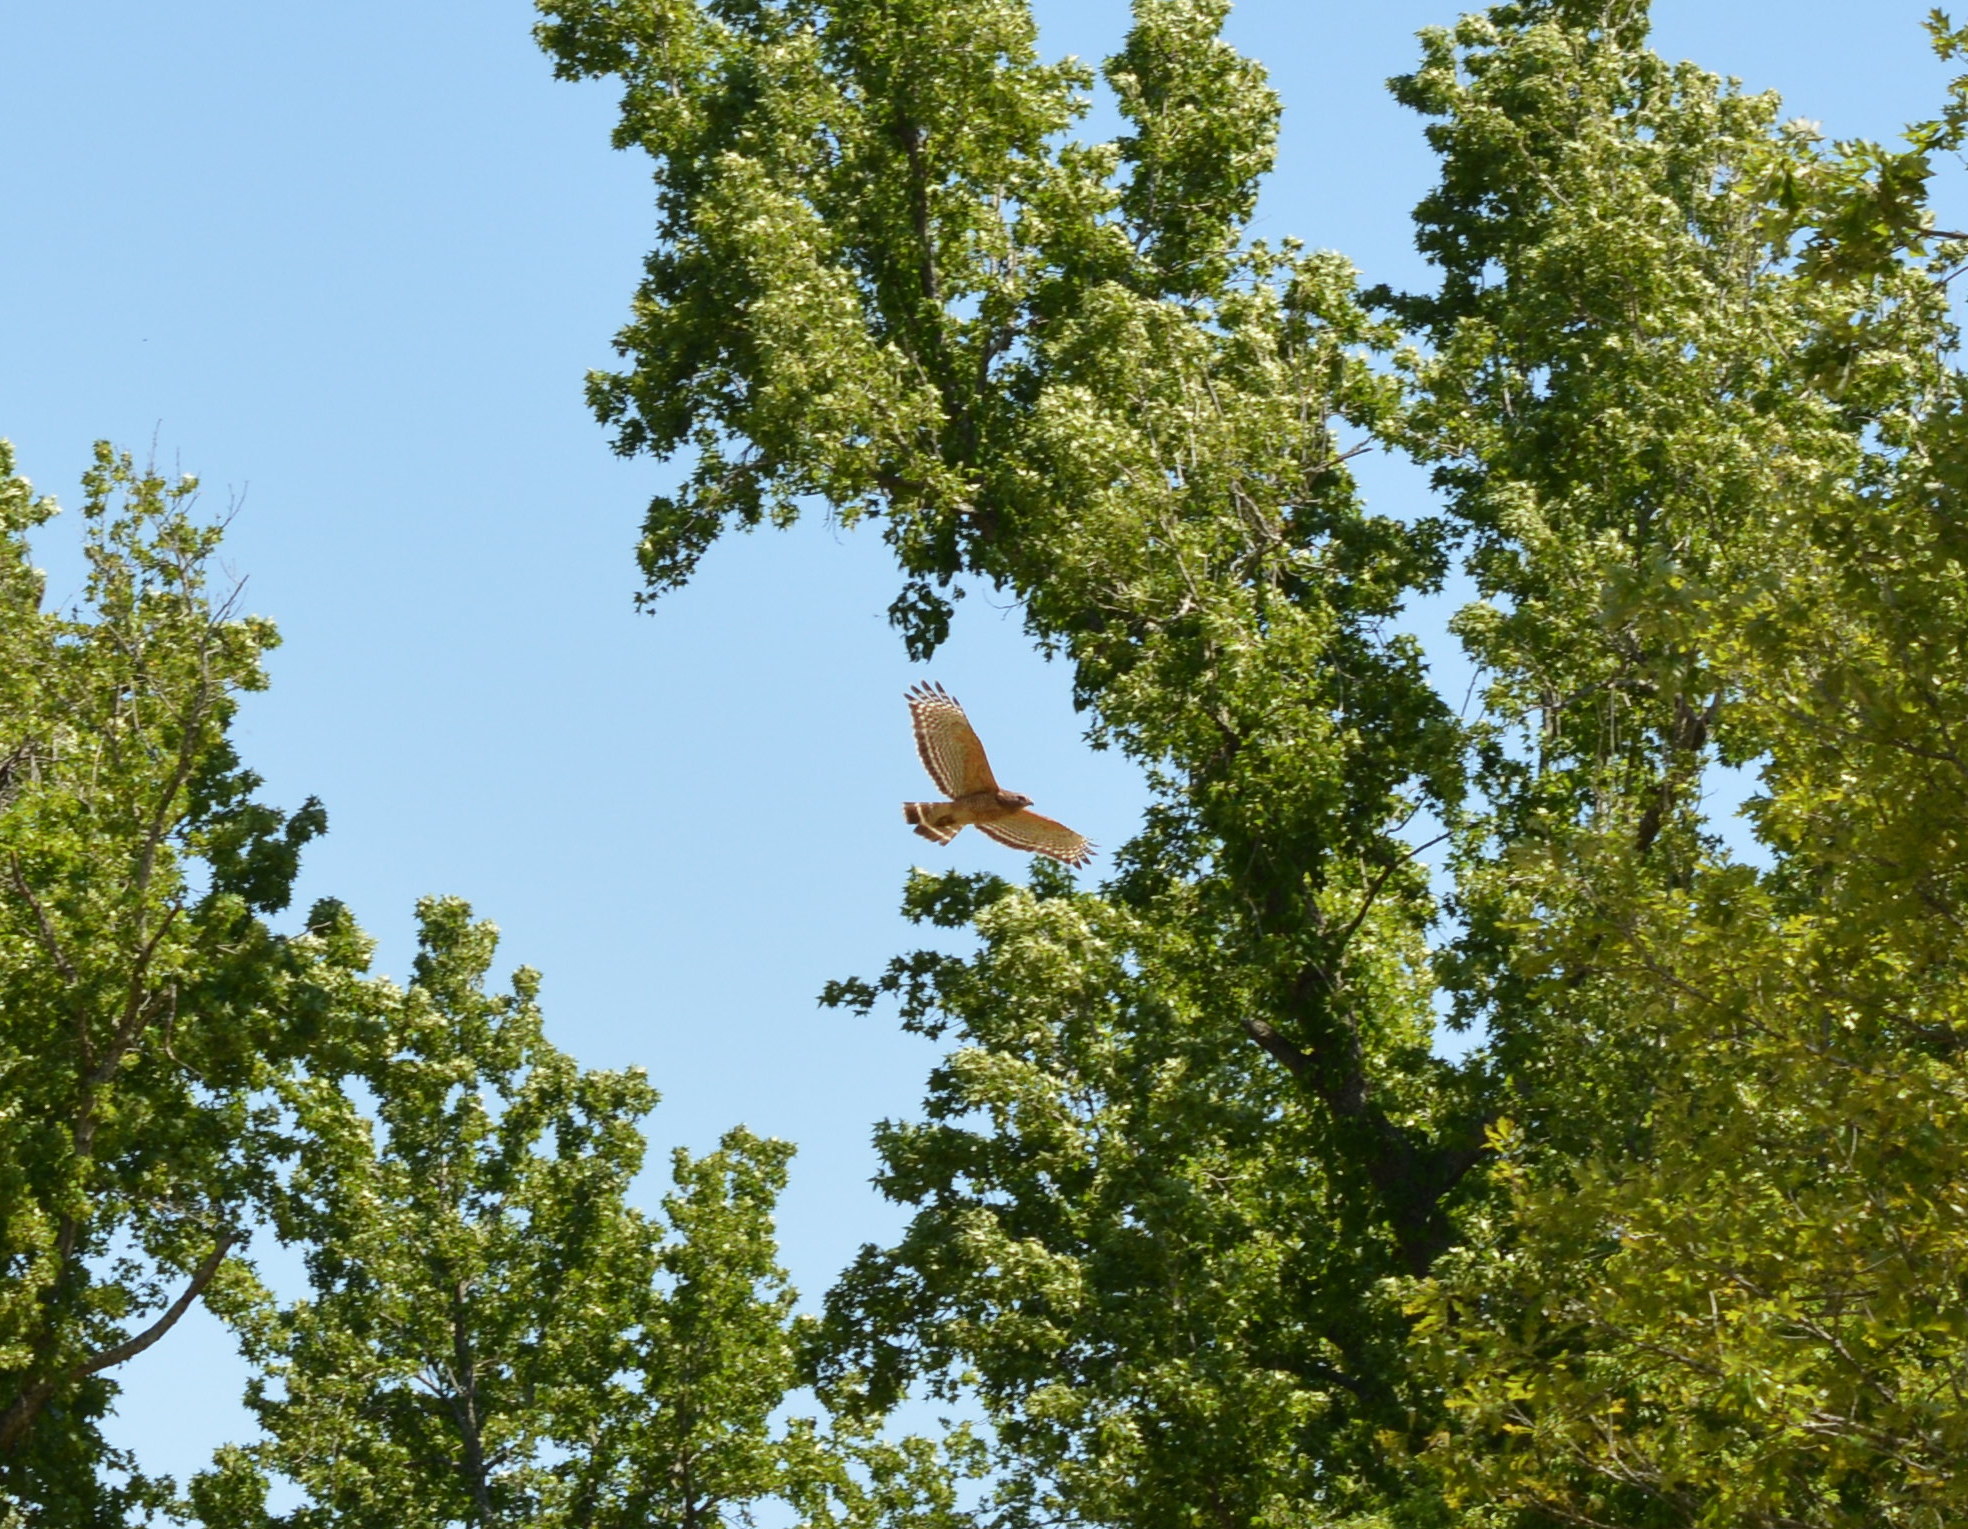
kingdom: Animalia
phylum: Chordata
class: Aves
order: Accipitriformes
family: Accipitridae
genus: Buteo
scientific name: Buteo lineatus
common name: Red-shouldered hawk
